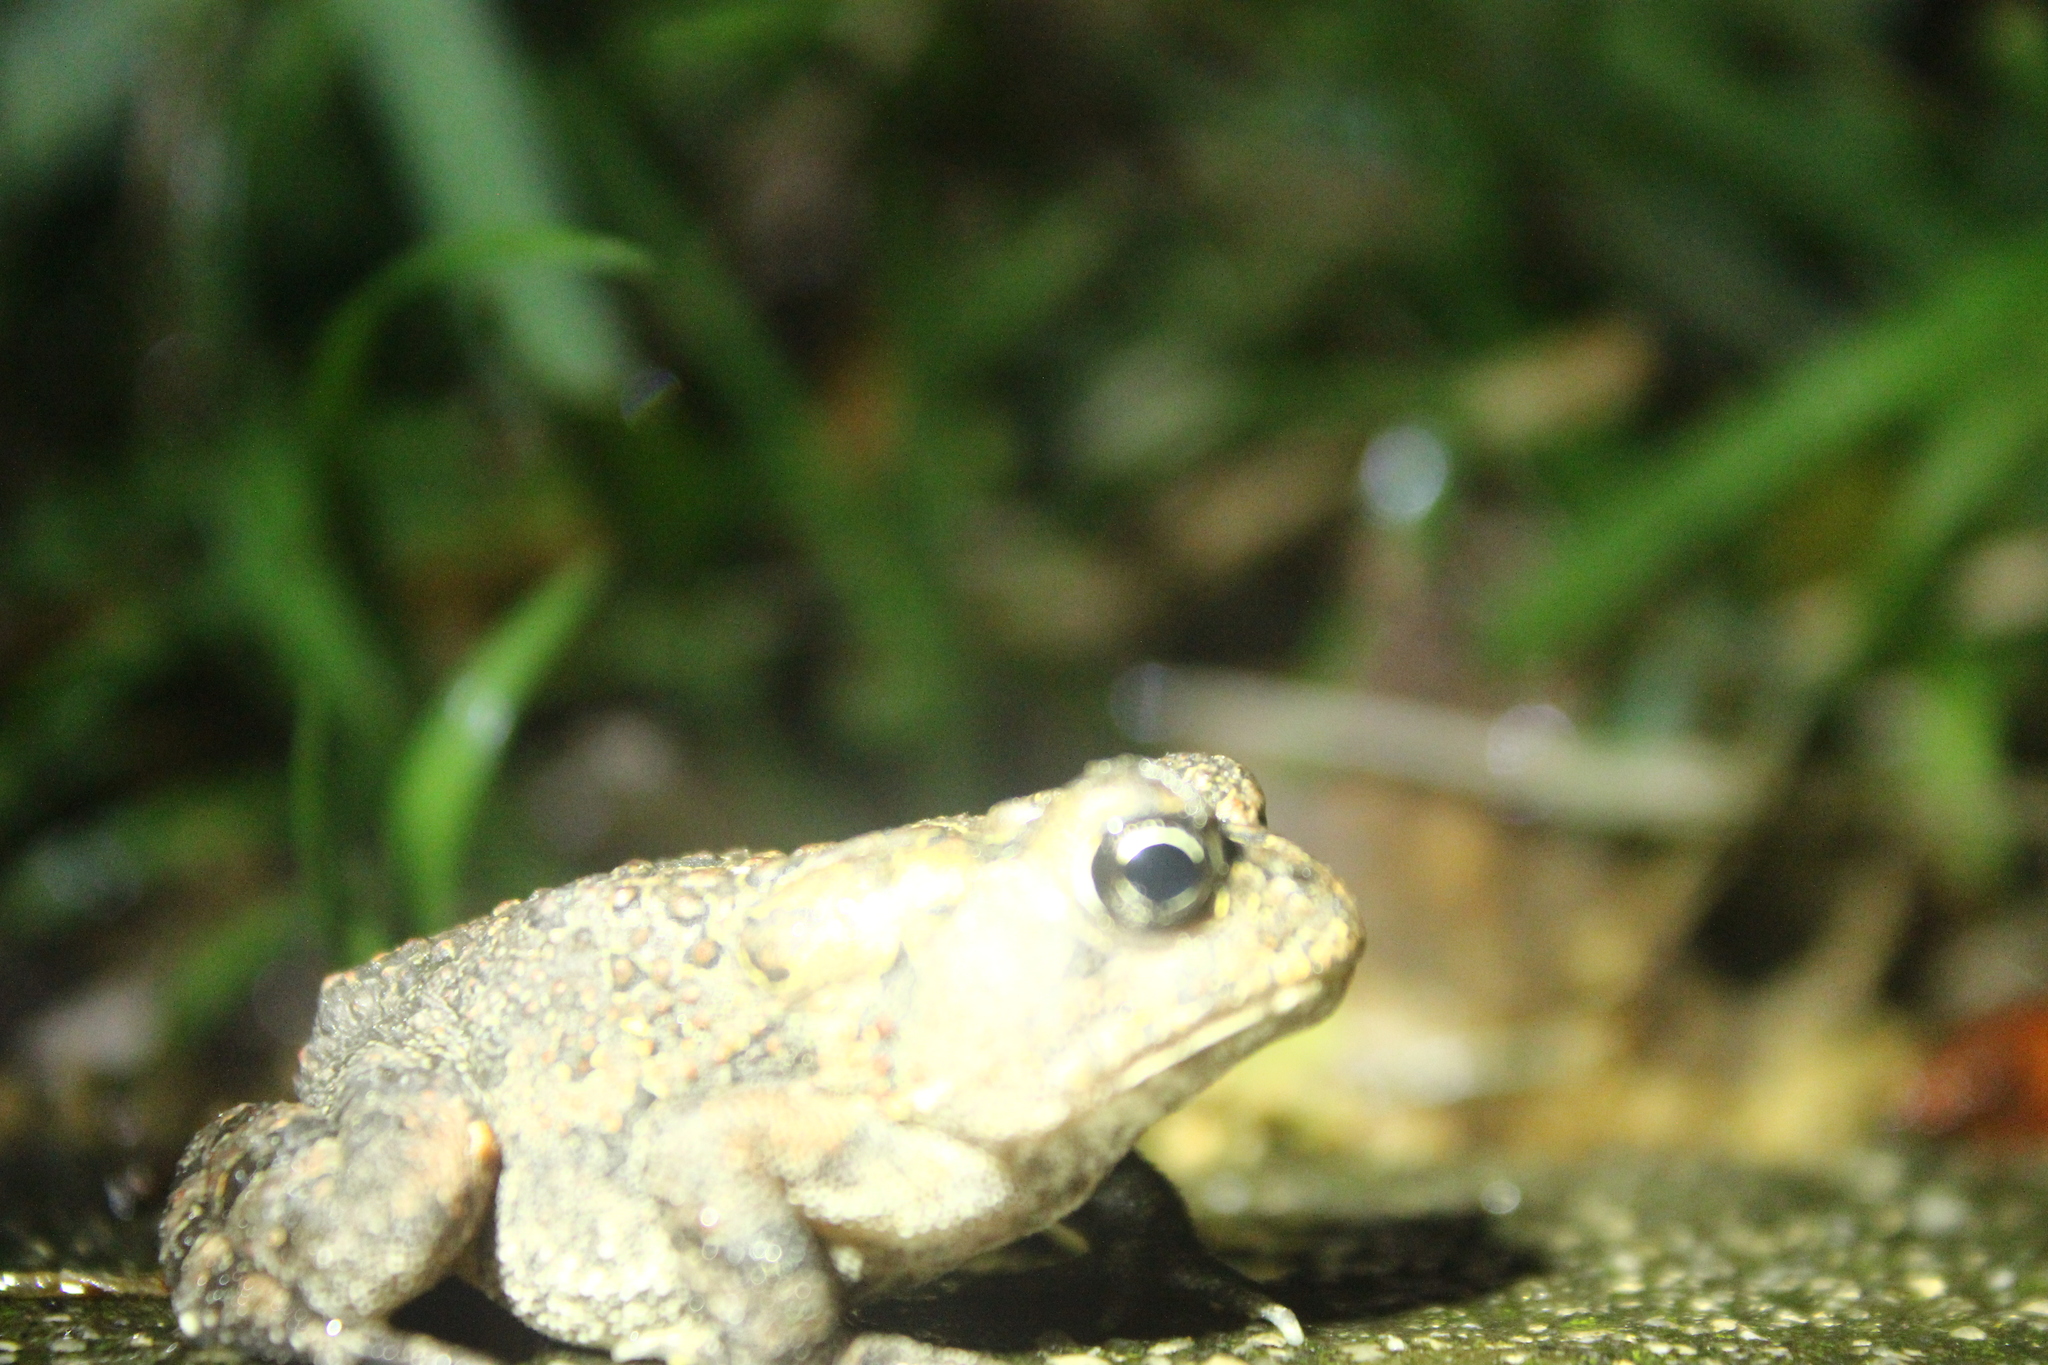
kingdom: Animalia
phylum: Chordata
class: Amphibia
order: Anura
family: Bufonidae
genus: Anaxyrus
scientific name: Anaxyrus terrestris
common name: Southern toad
